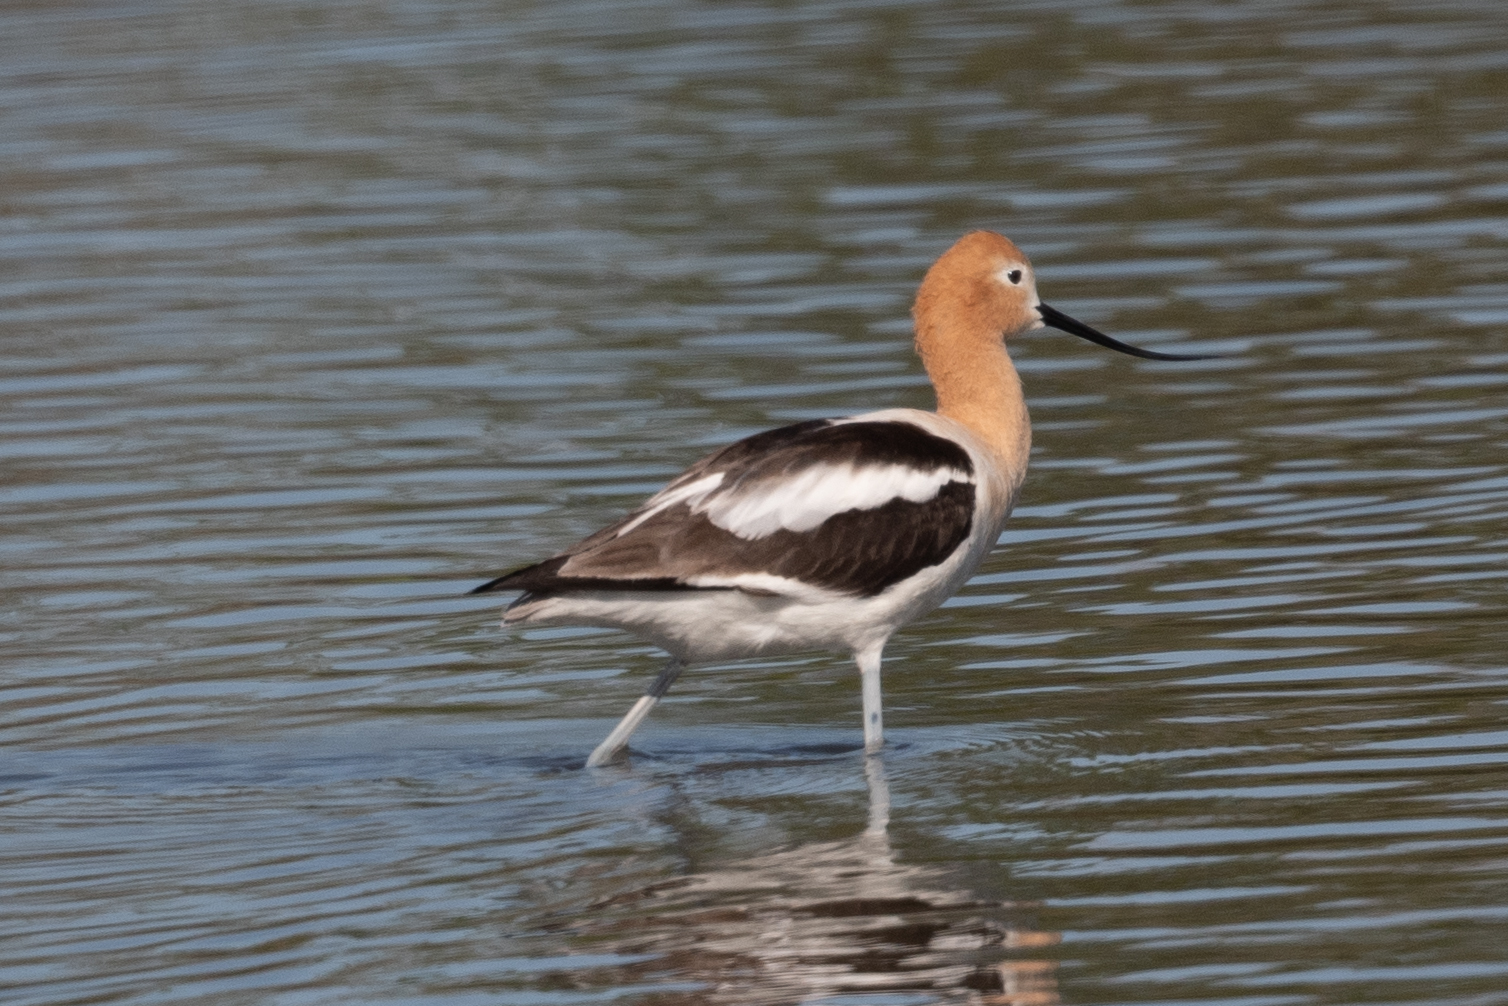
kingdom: Animalia
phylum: Chordata
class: Aves
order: Charadriiformes
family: Recurvirostridae
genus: Recurvirostra
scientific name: Recurvirostra americana
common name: American avocet
